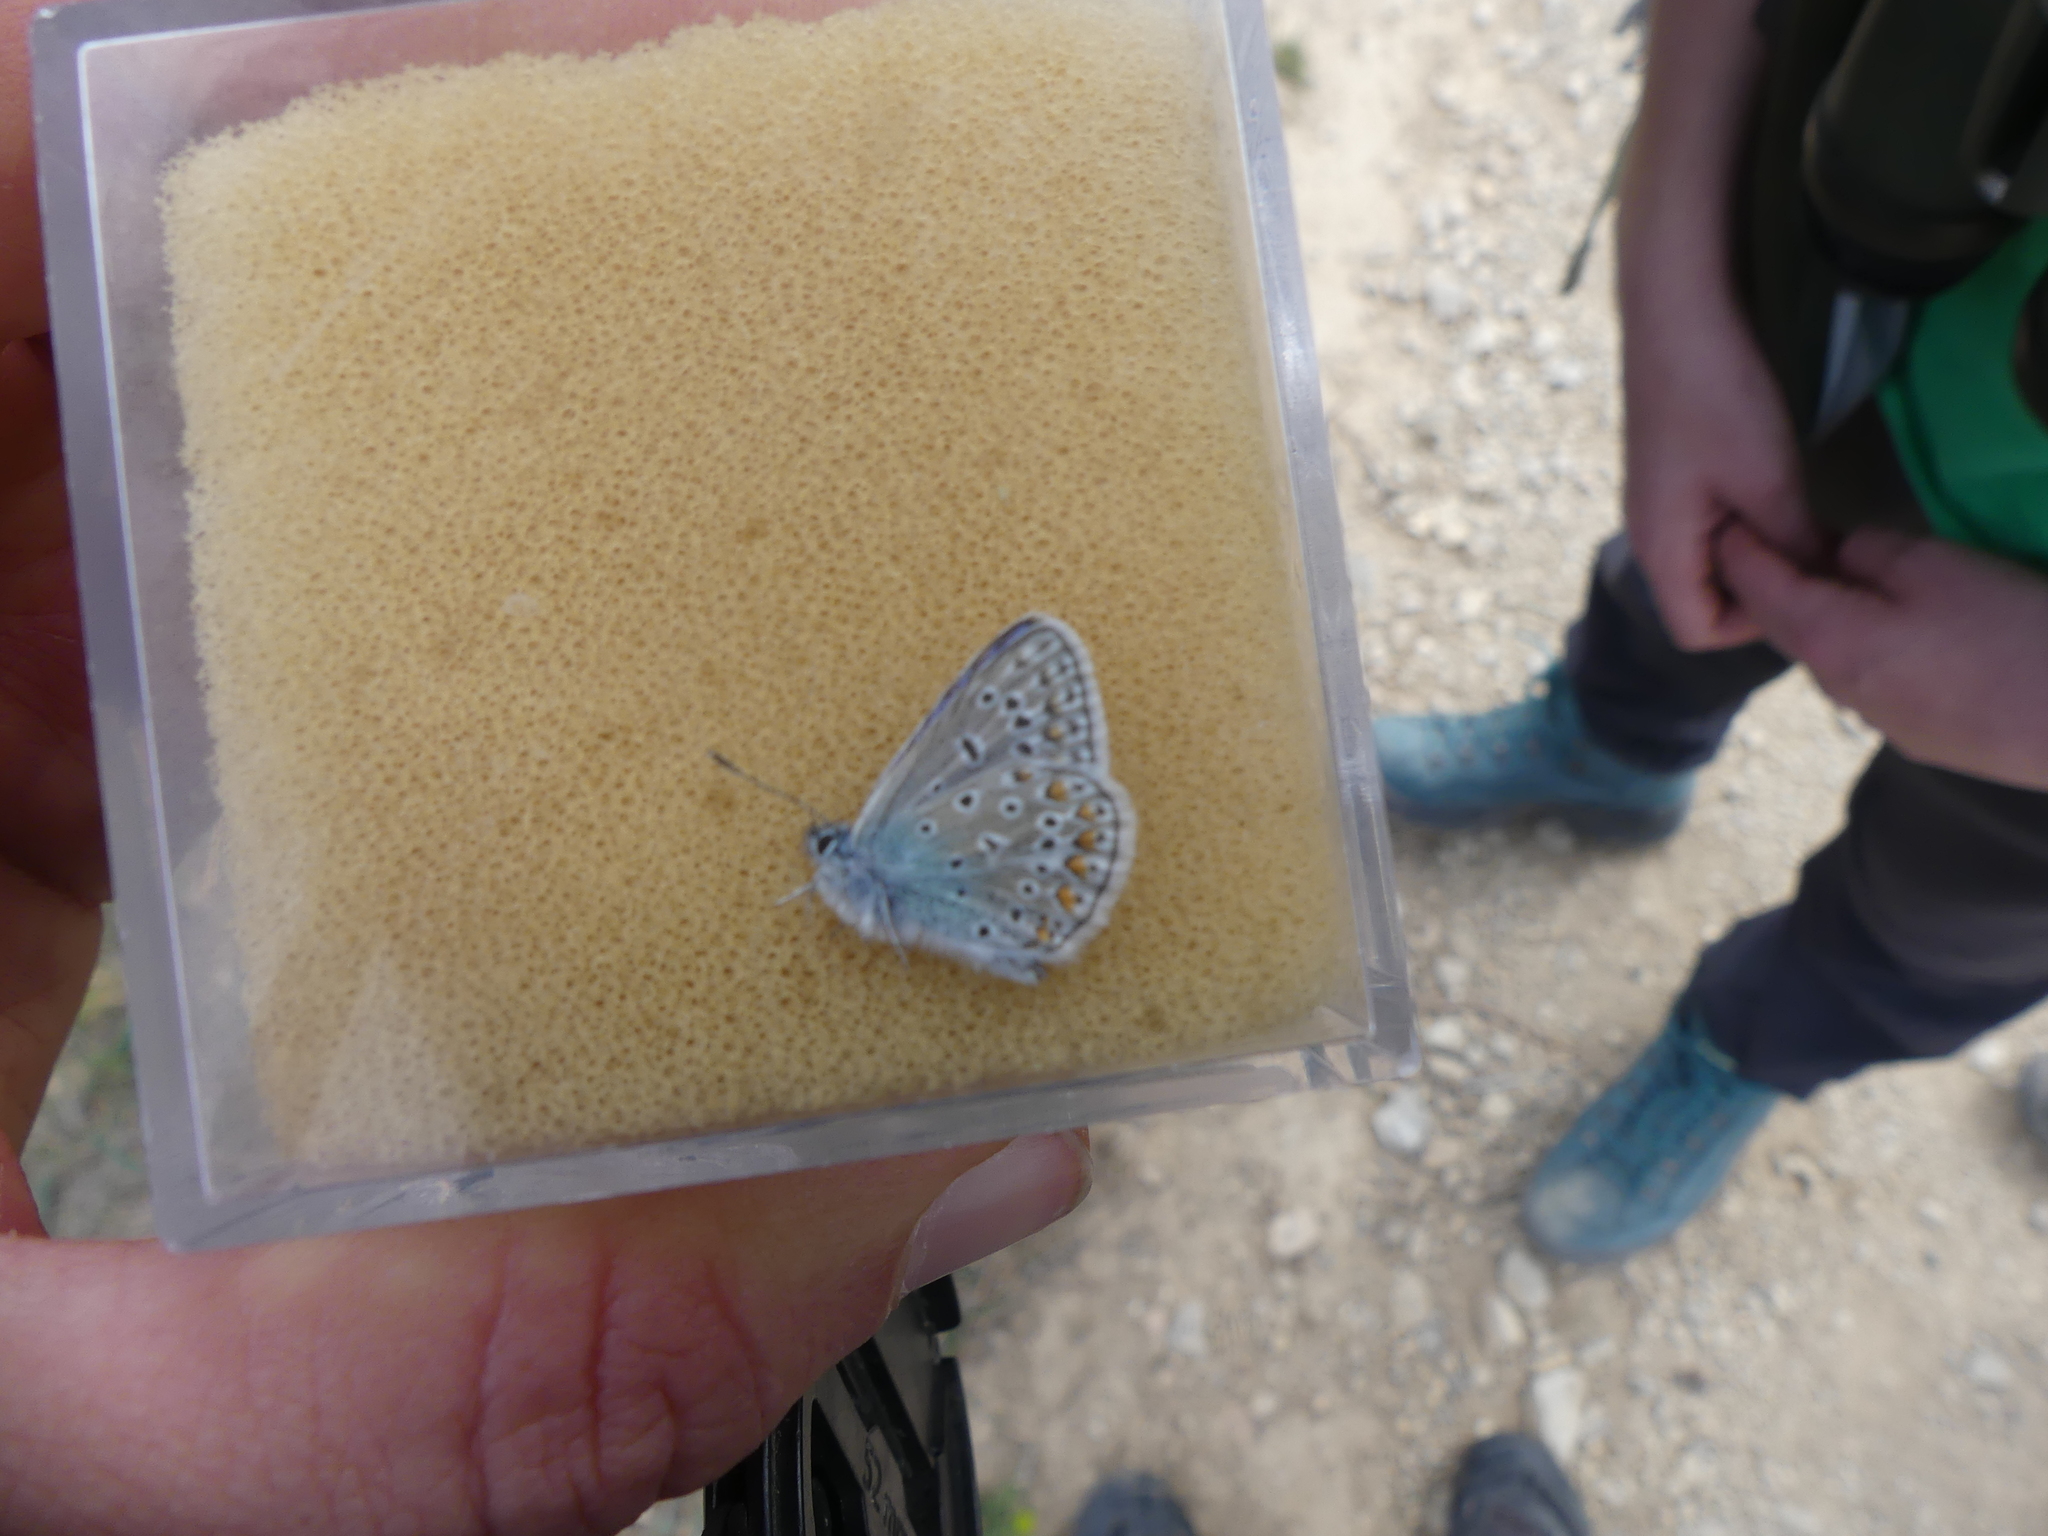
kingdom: Animalia
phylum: Arthropoda
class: Insecta
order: Lepidoptera
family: Lycaenidae
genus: Polyommatus
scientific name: Polyommatus icarus
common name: Common blue
